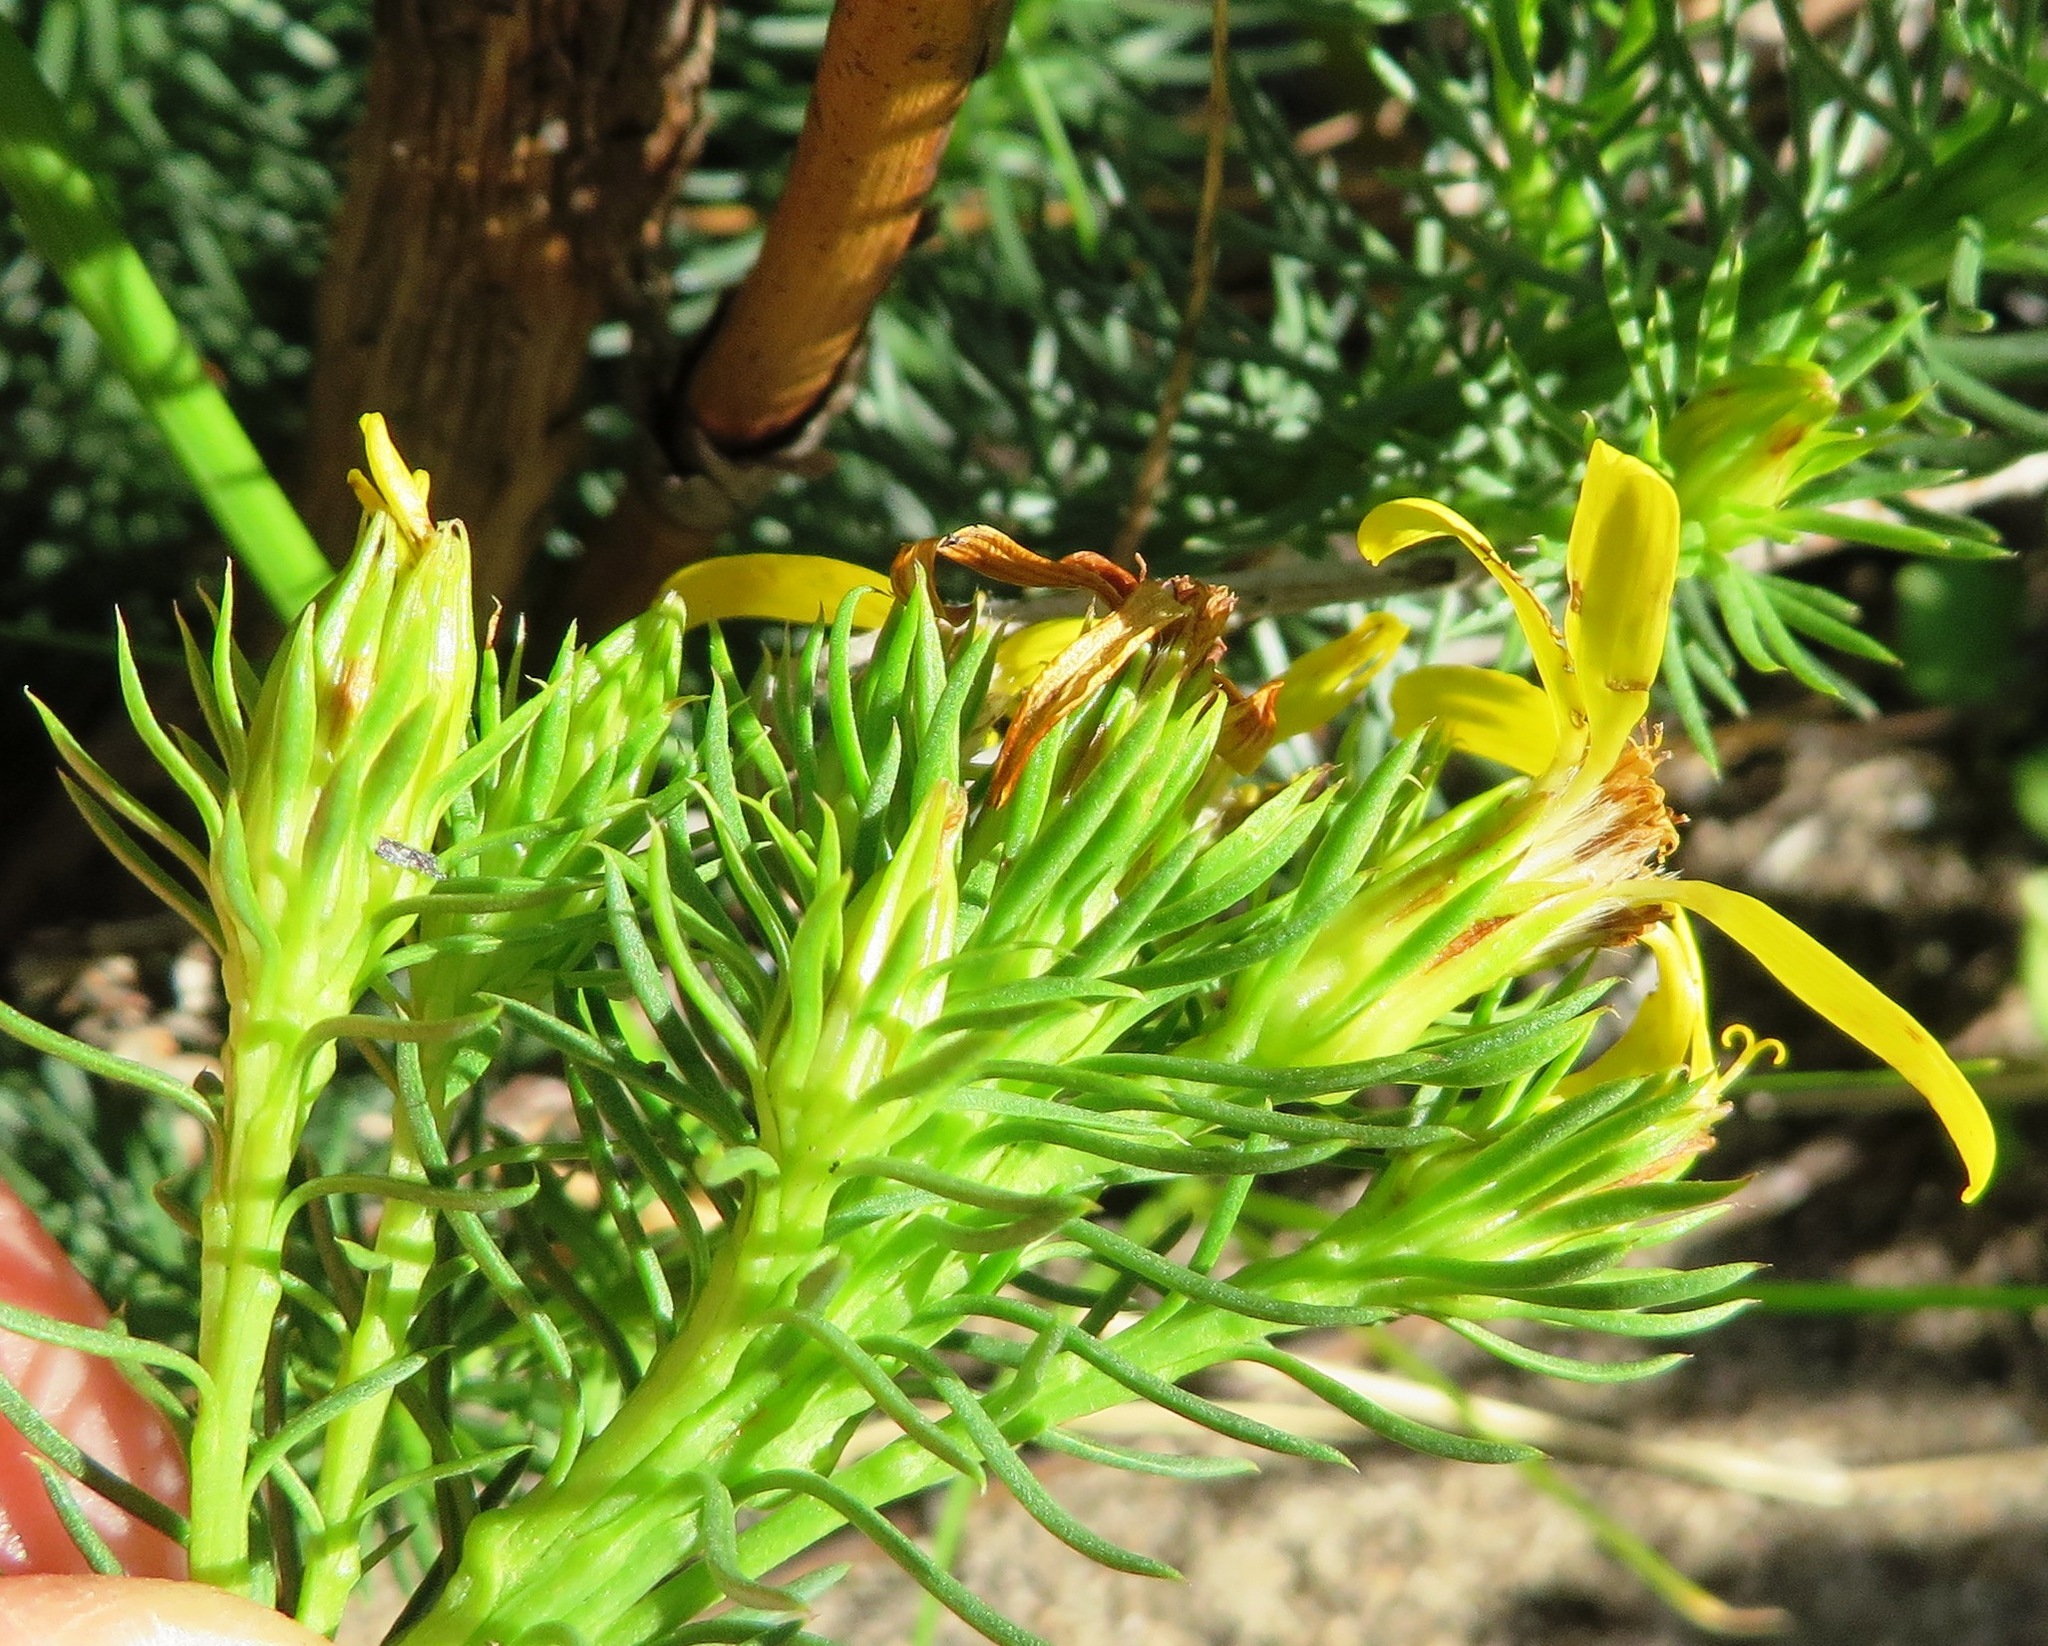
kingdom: Plantae
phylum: Tracheophyta
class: Magnoliopsida
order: Asterales
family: Asteraceae
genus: Senecio
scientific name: Senecio pinifolius
